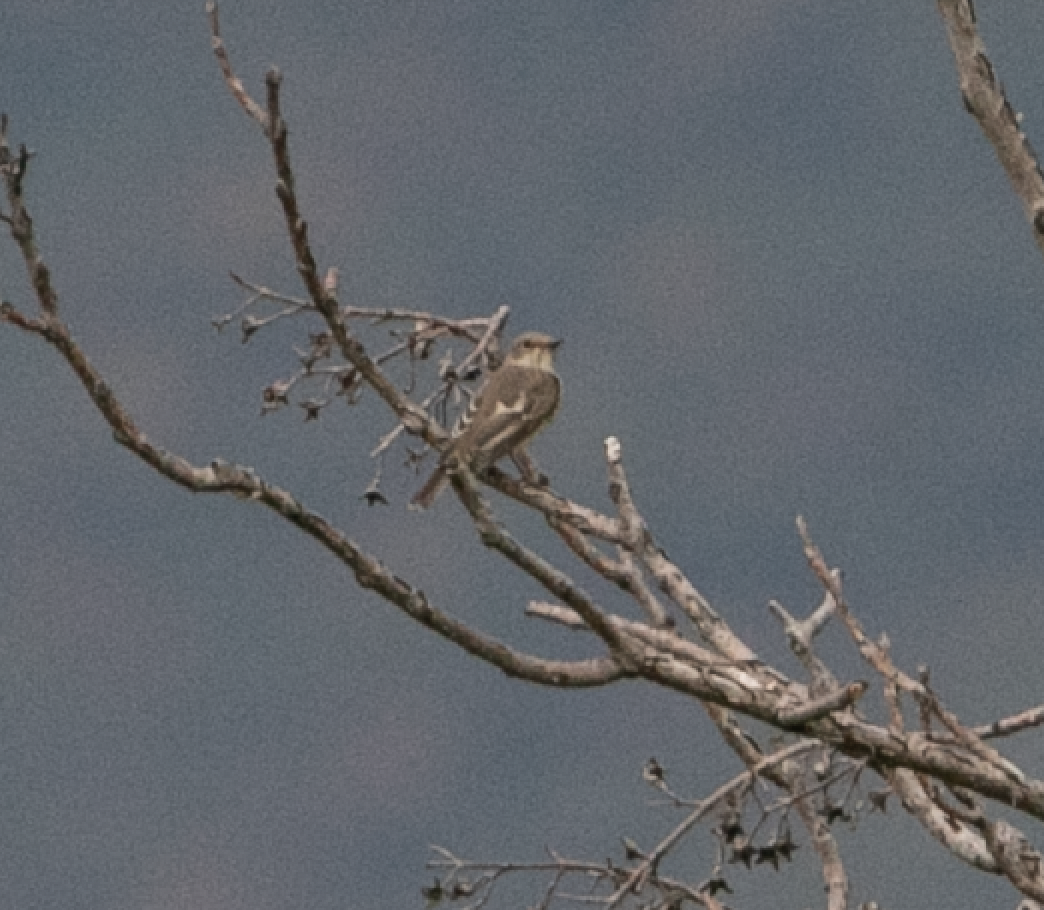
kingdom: Animalia
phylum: Chordata
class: Aves
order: Passeriformes
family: Muscicapidae
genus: Ficedula
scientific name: Ficedula hypoleuca
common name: European pied flycatcher
